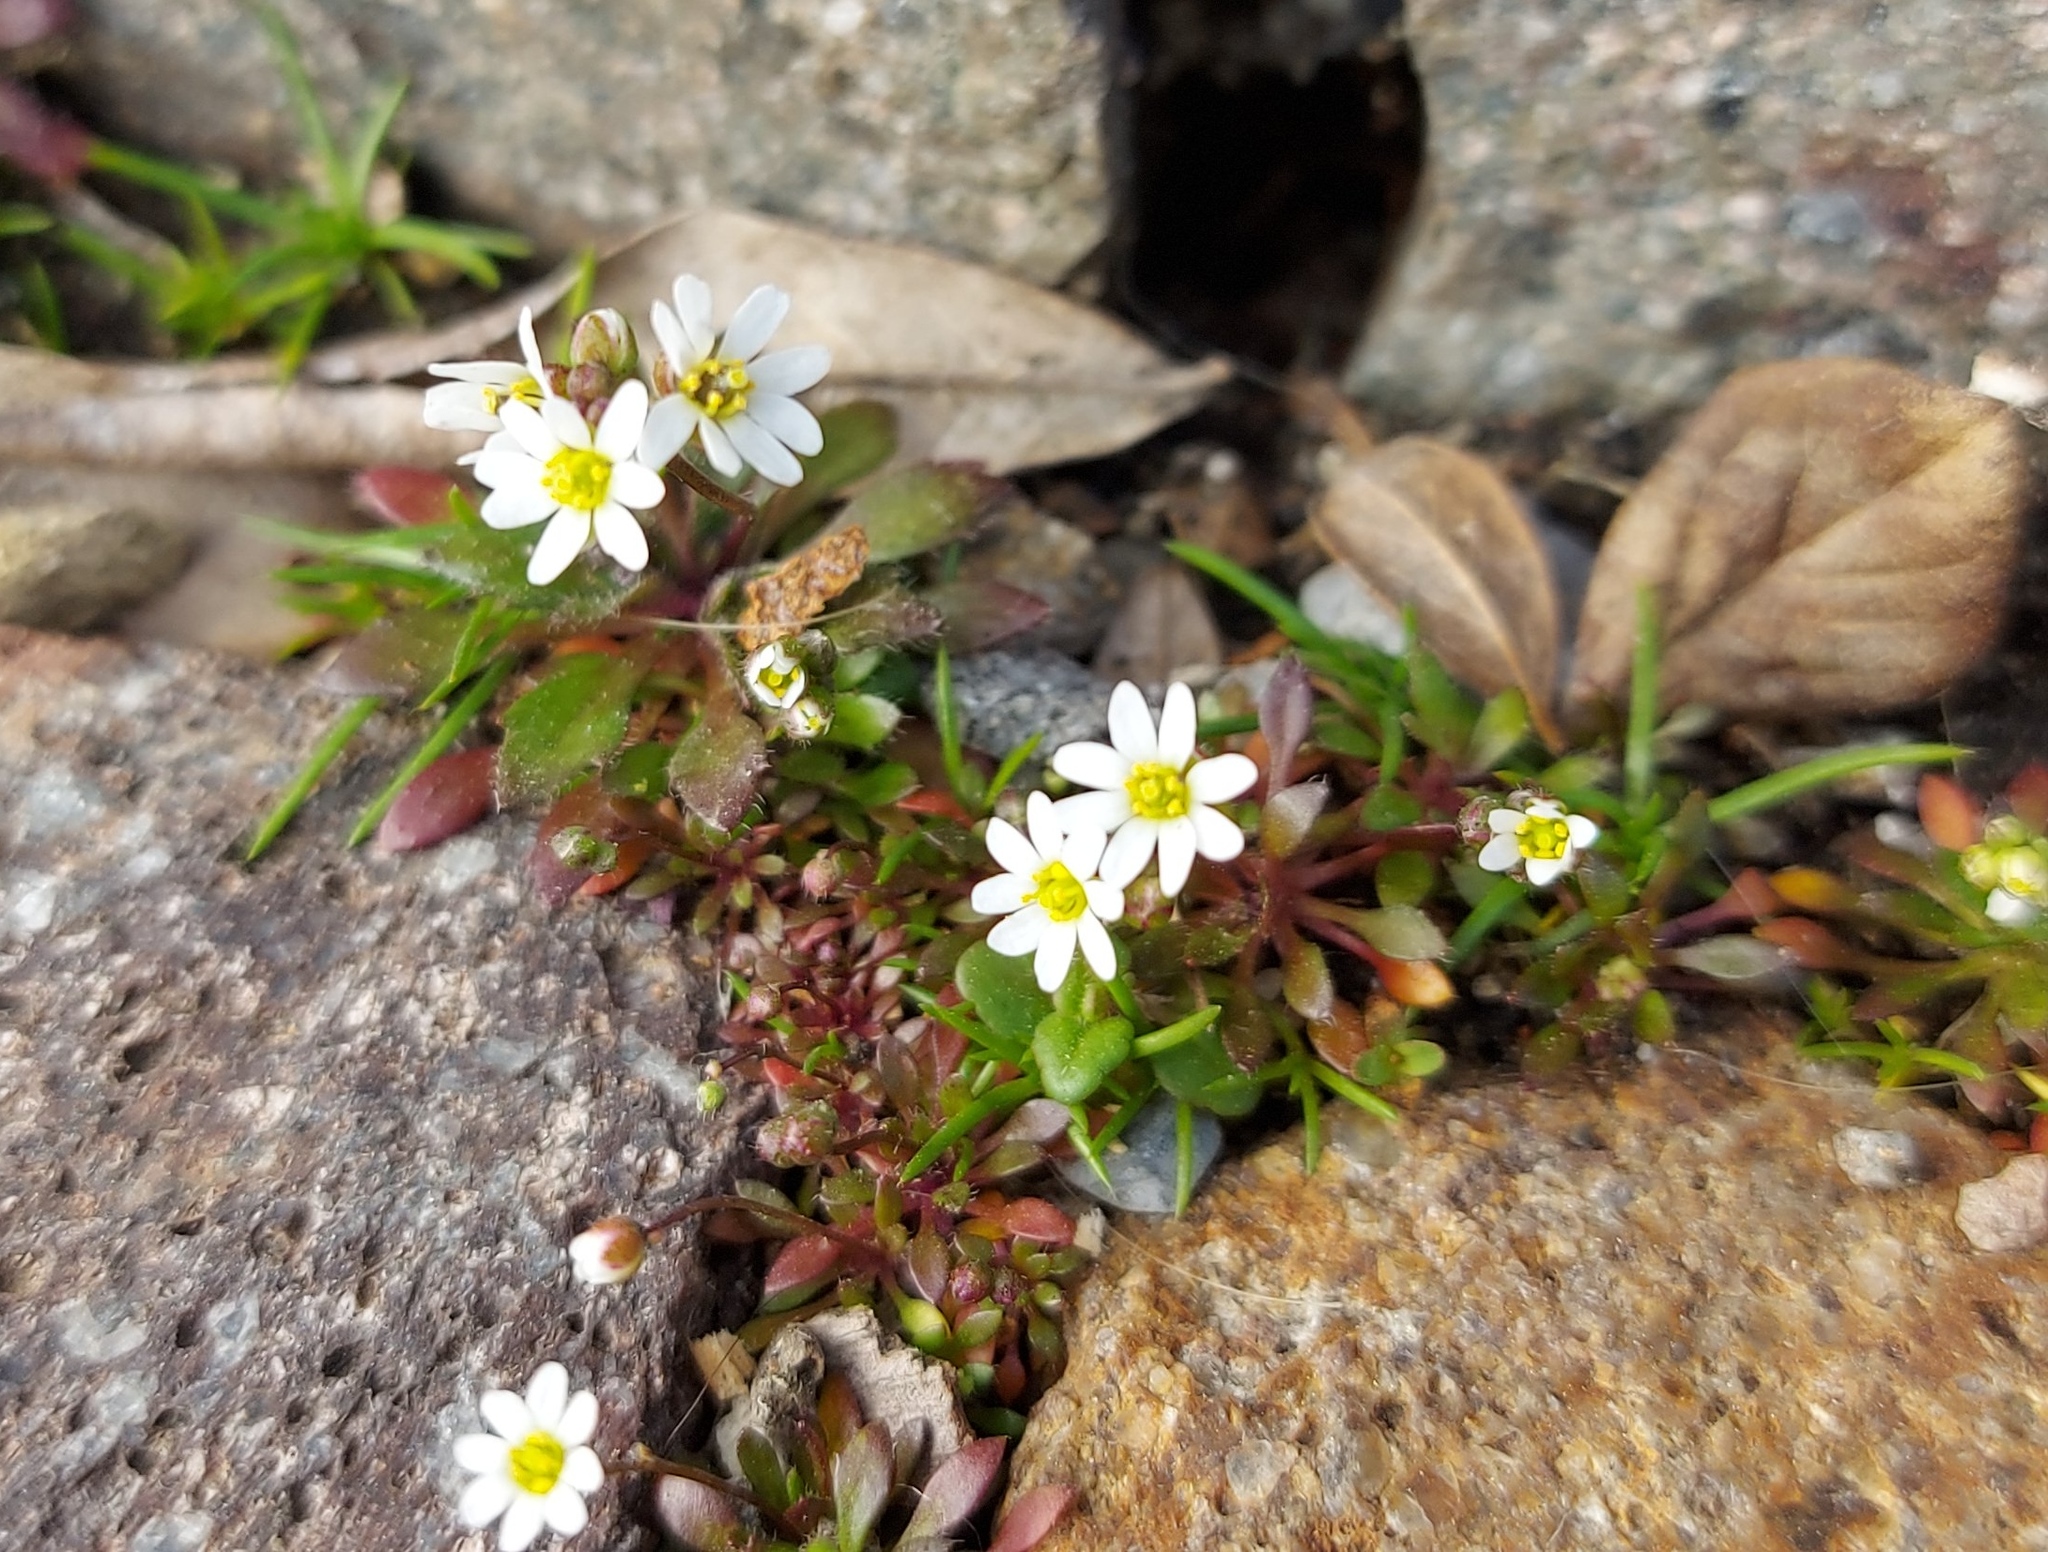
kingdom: Plantae
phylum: Tracheophyta
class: Magnoliopsida
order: Brassicales
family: Brassicaceae
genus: Draba
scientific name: Draba verna
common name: Spring draba
